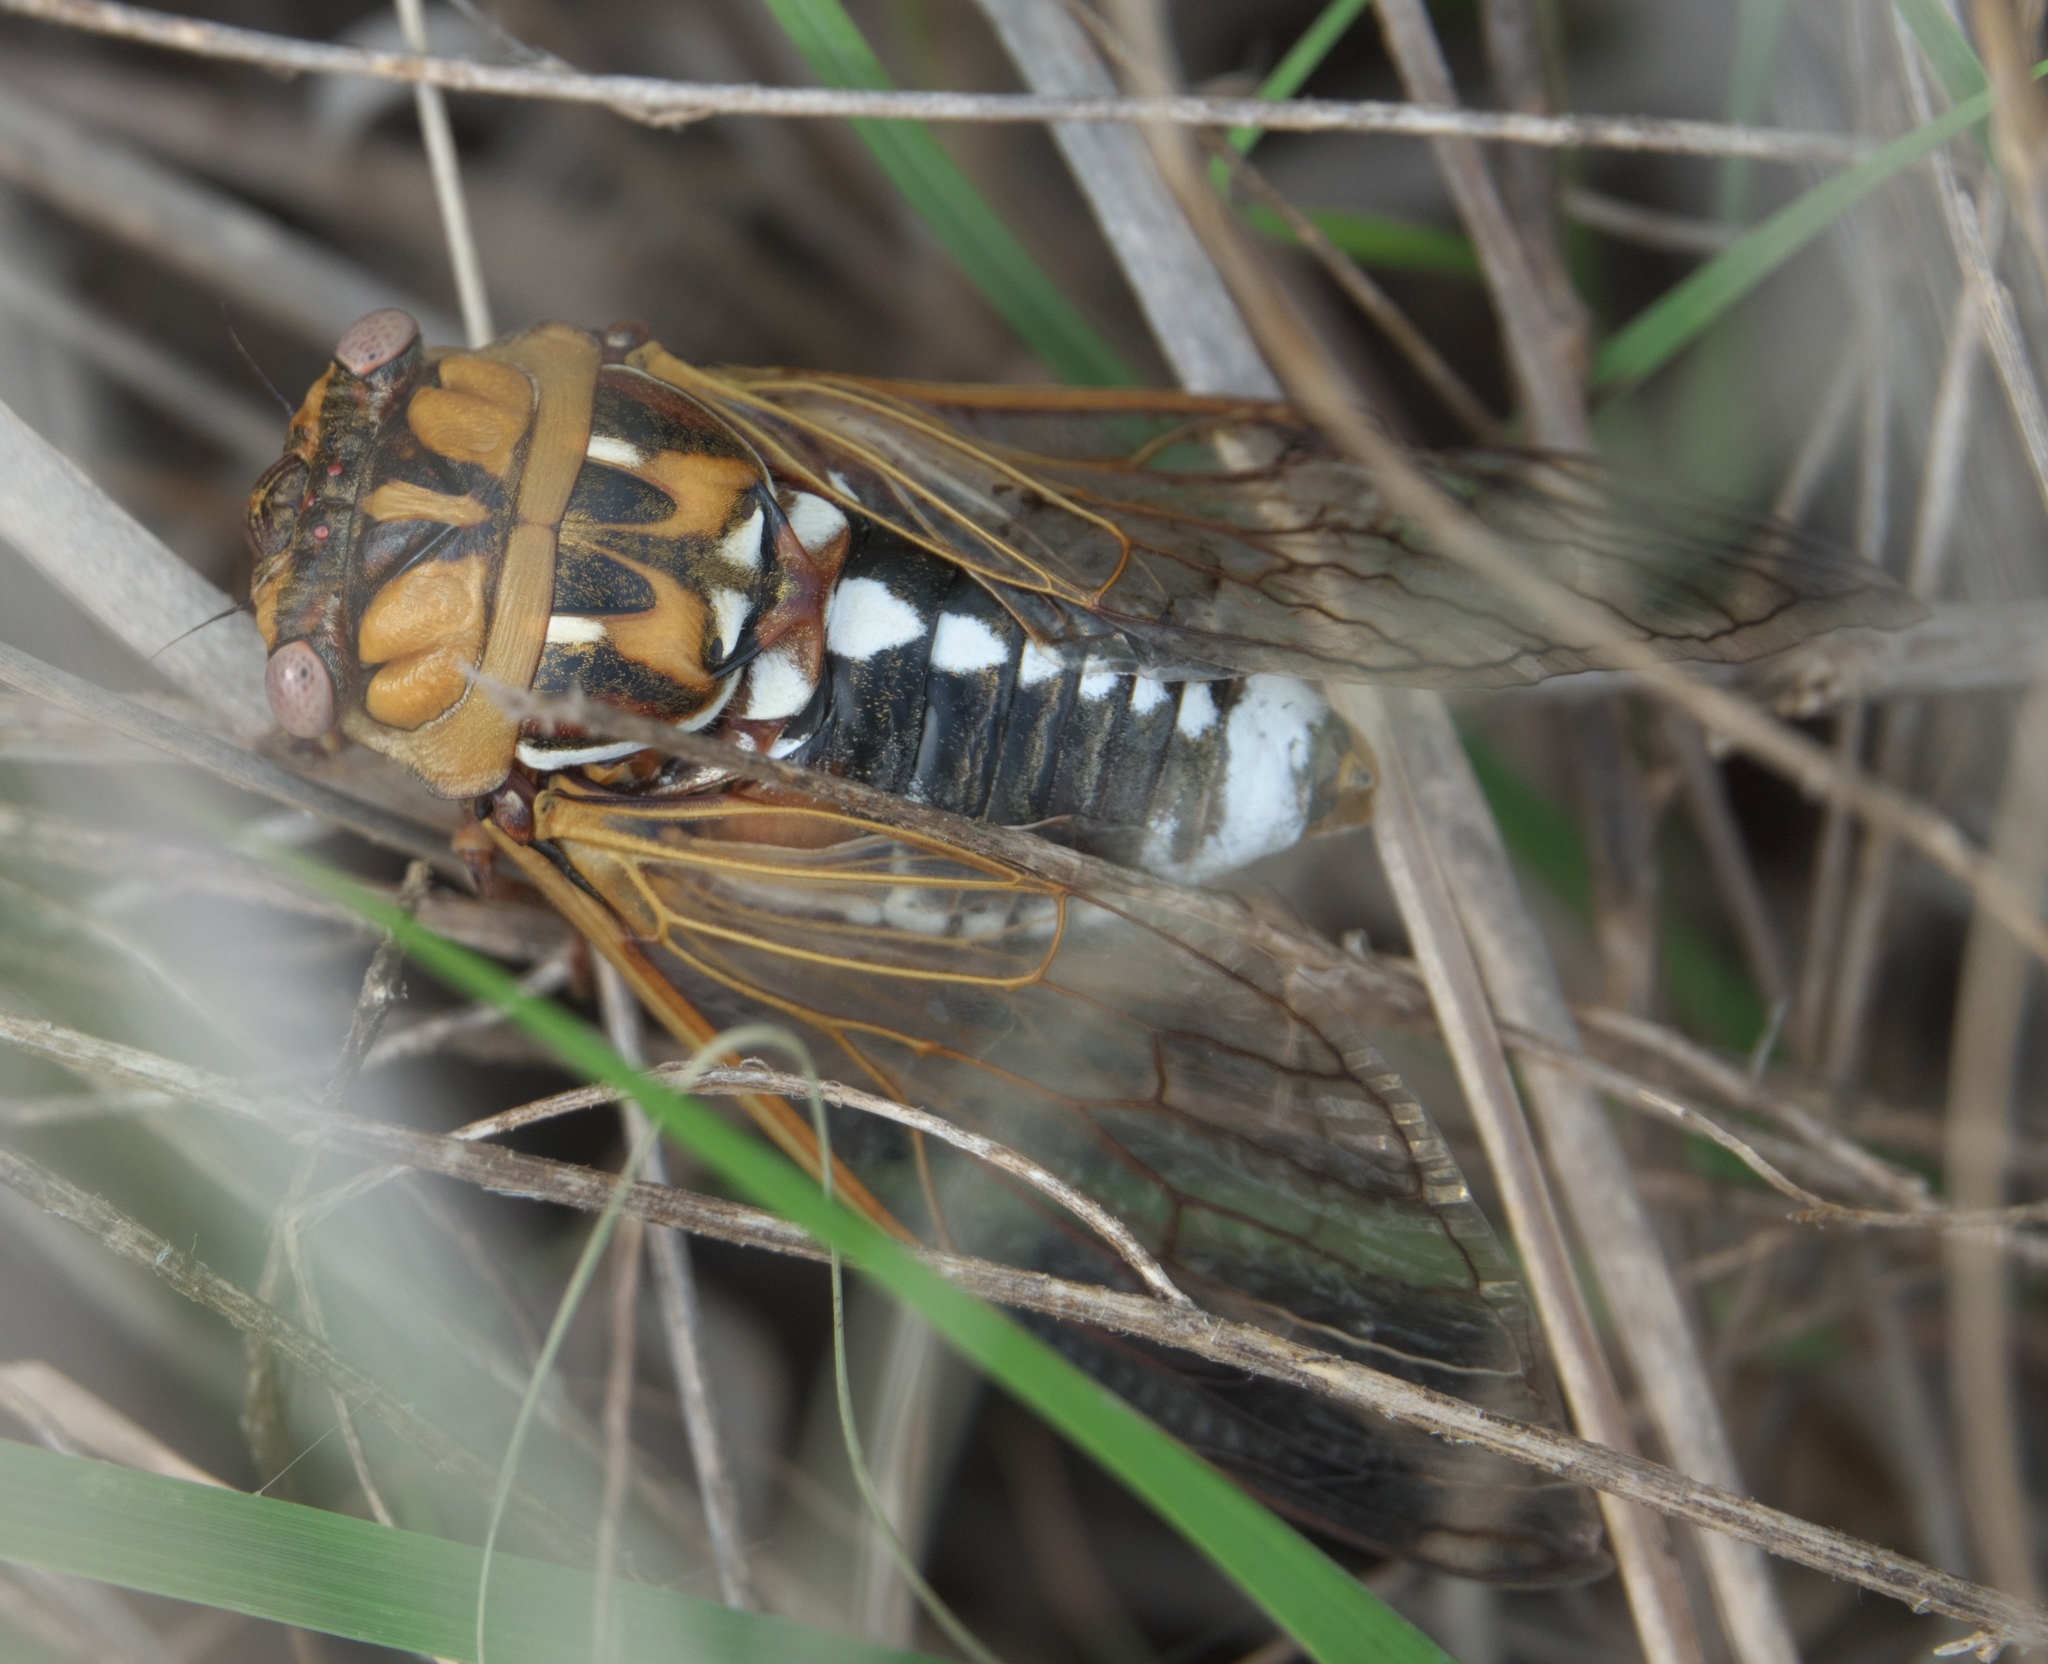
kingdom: Animalia
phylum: Arthropoda
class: Insecta
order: Hemiptera
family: Cicadidae
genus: Megatibicen
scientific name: Megatibicen dorsatus
